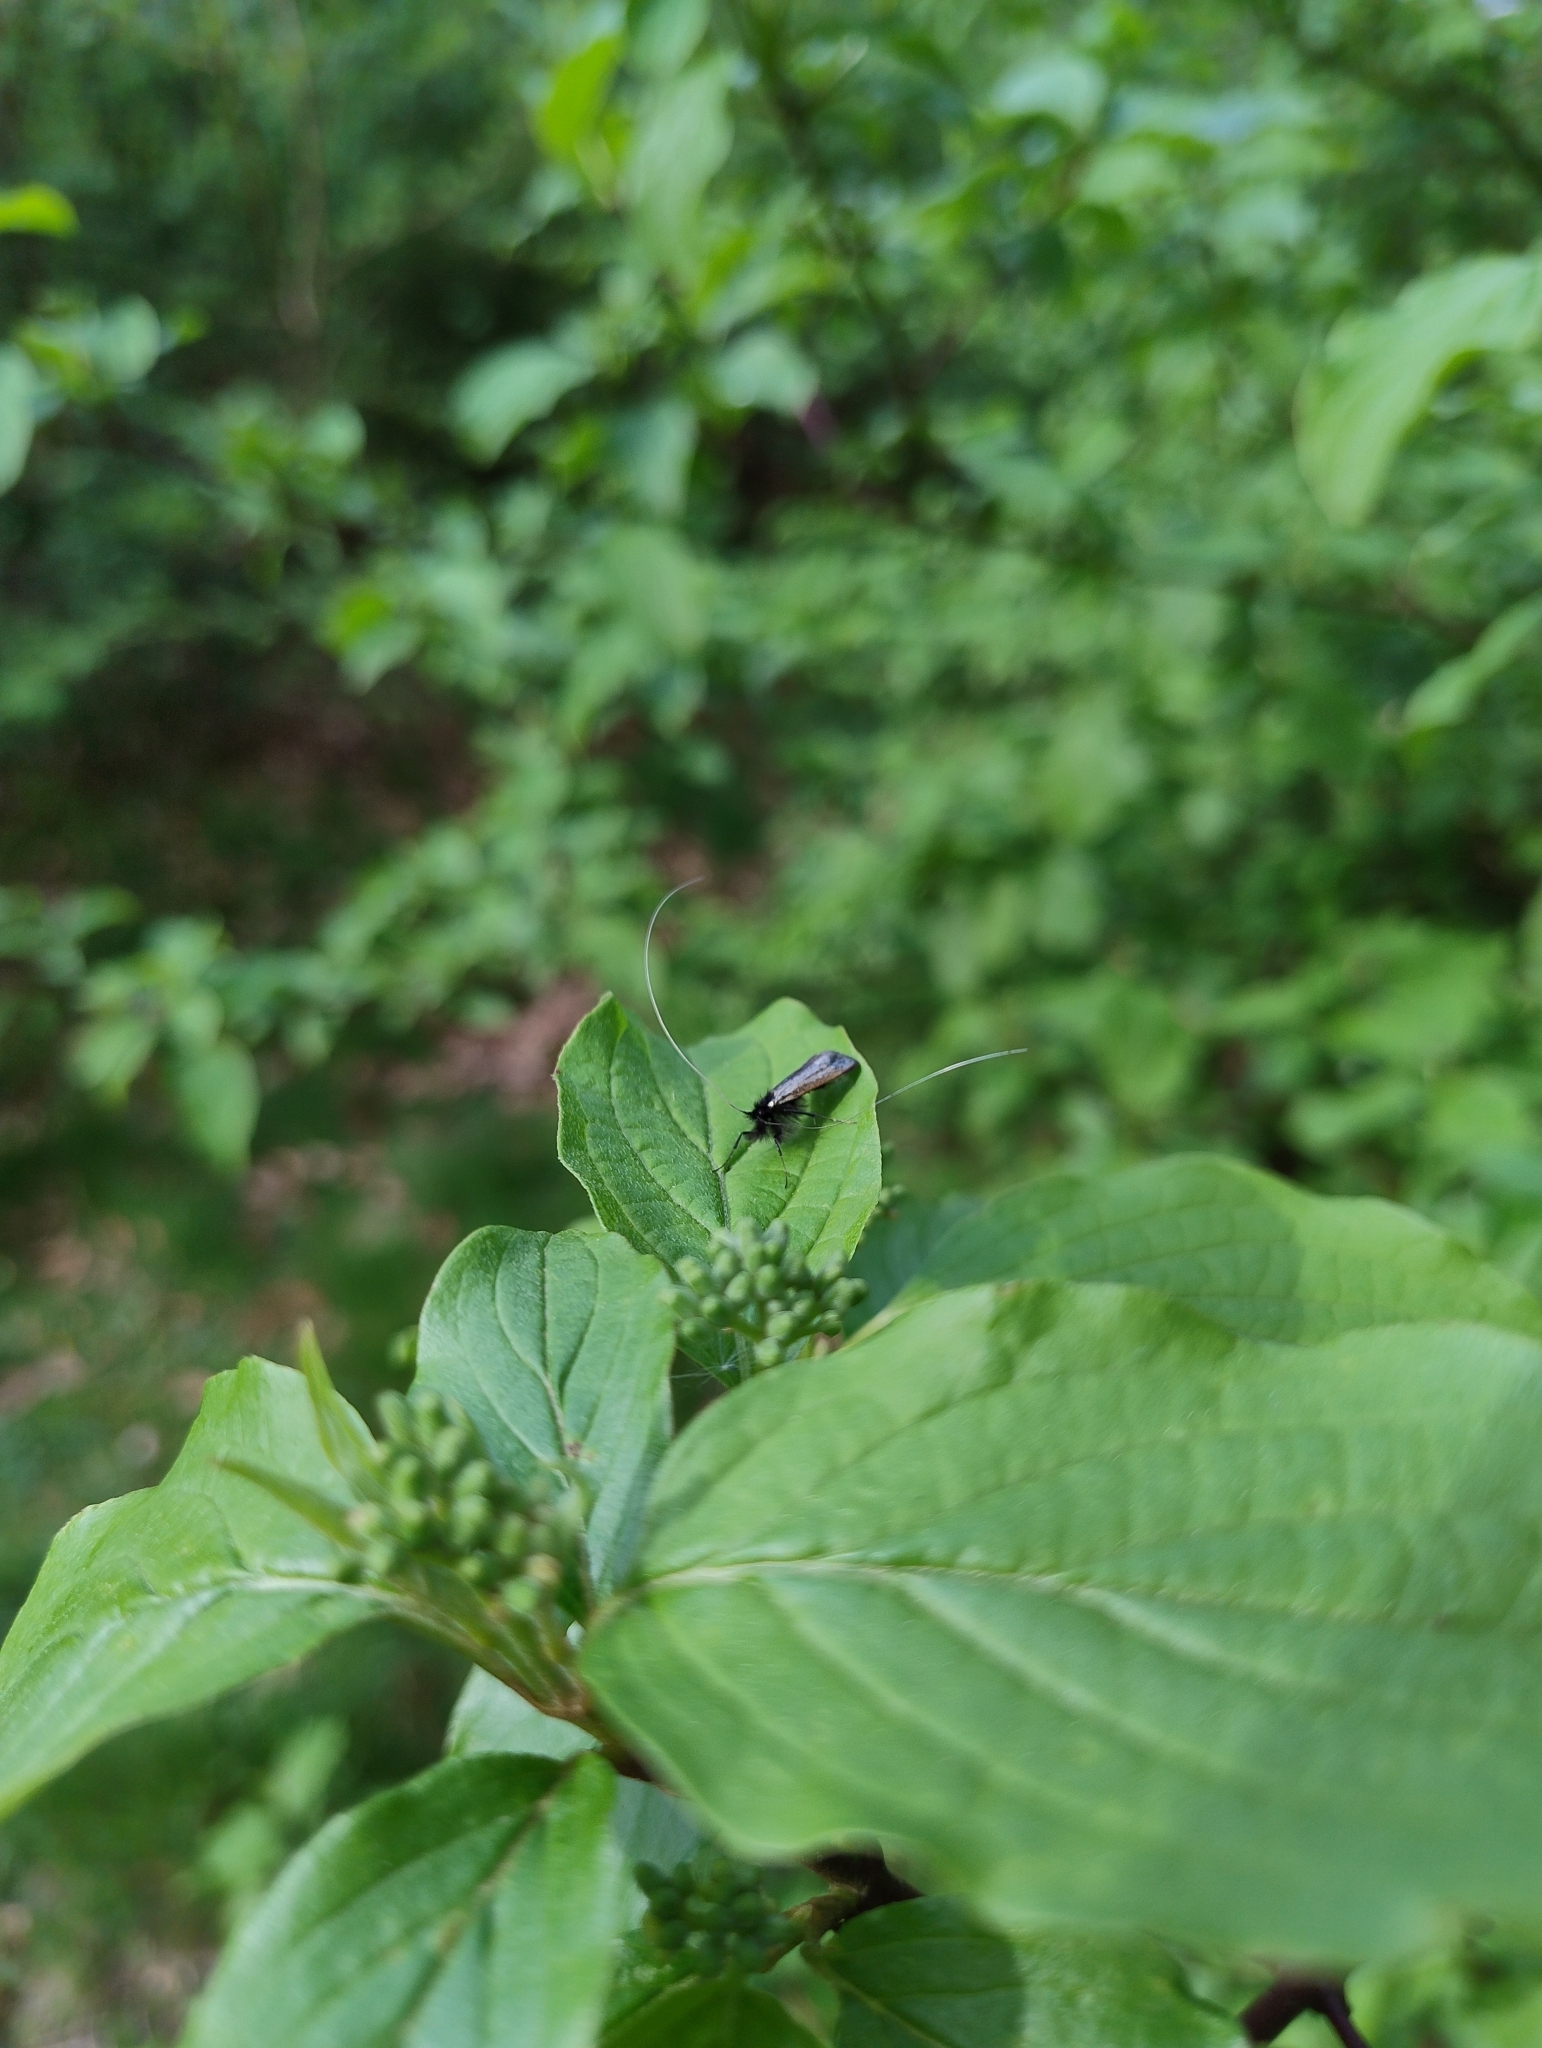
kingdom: Animalia
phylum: Arthropoda
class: Insecta
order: Lepidoptera
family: Adelidae
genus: Adela
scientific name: Adela viridella
